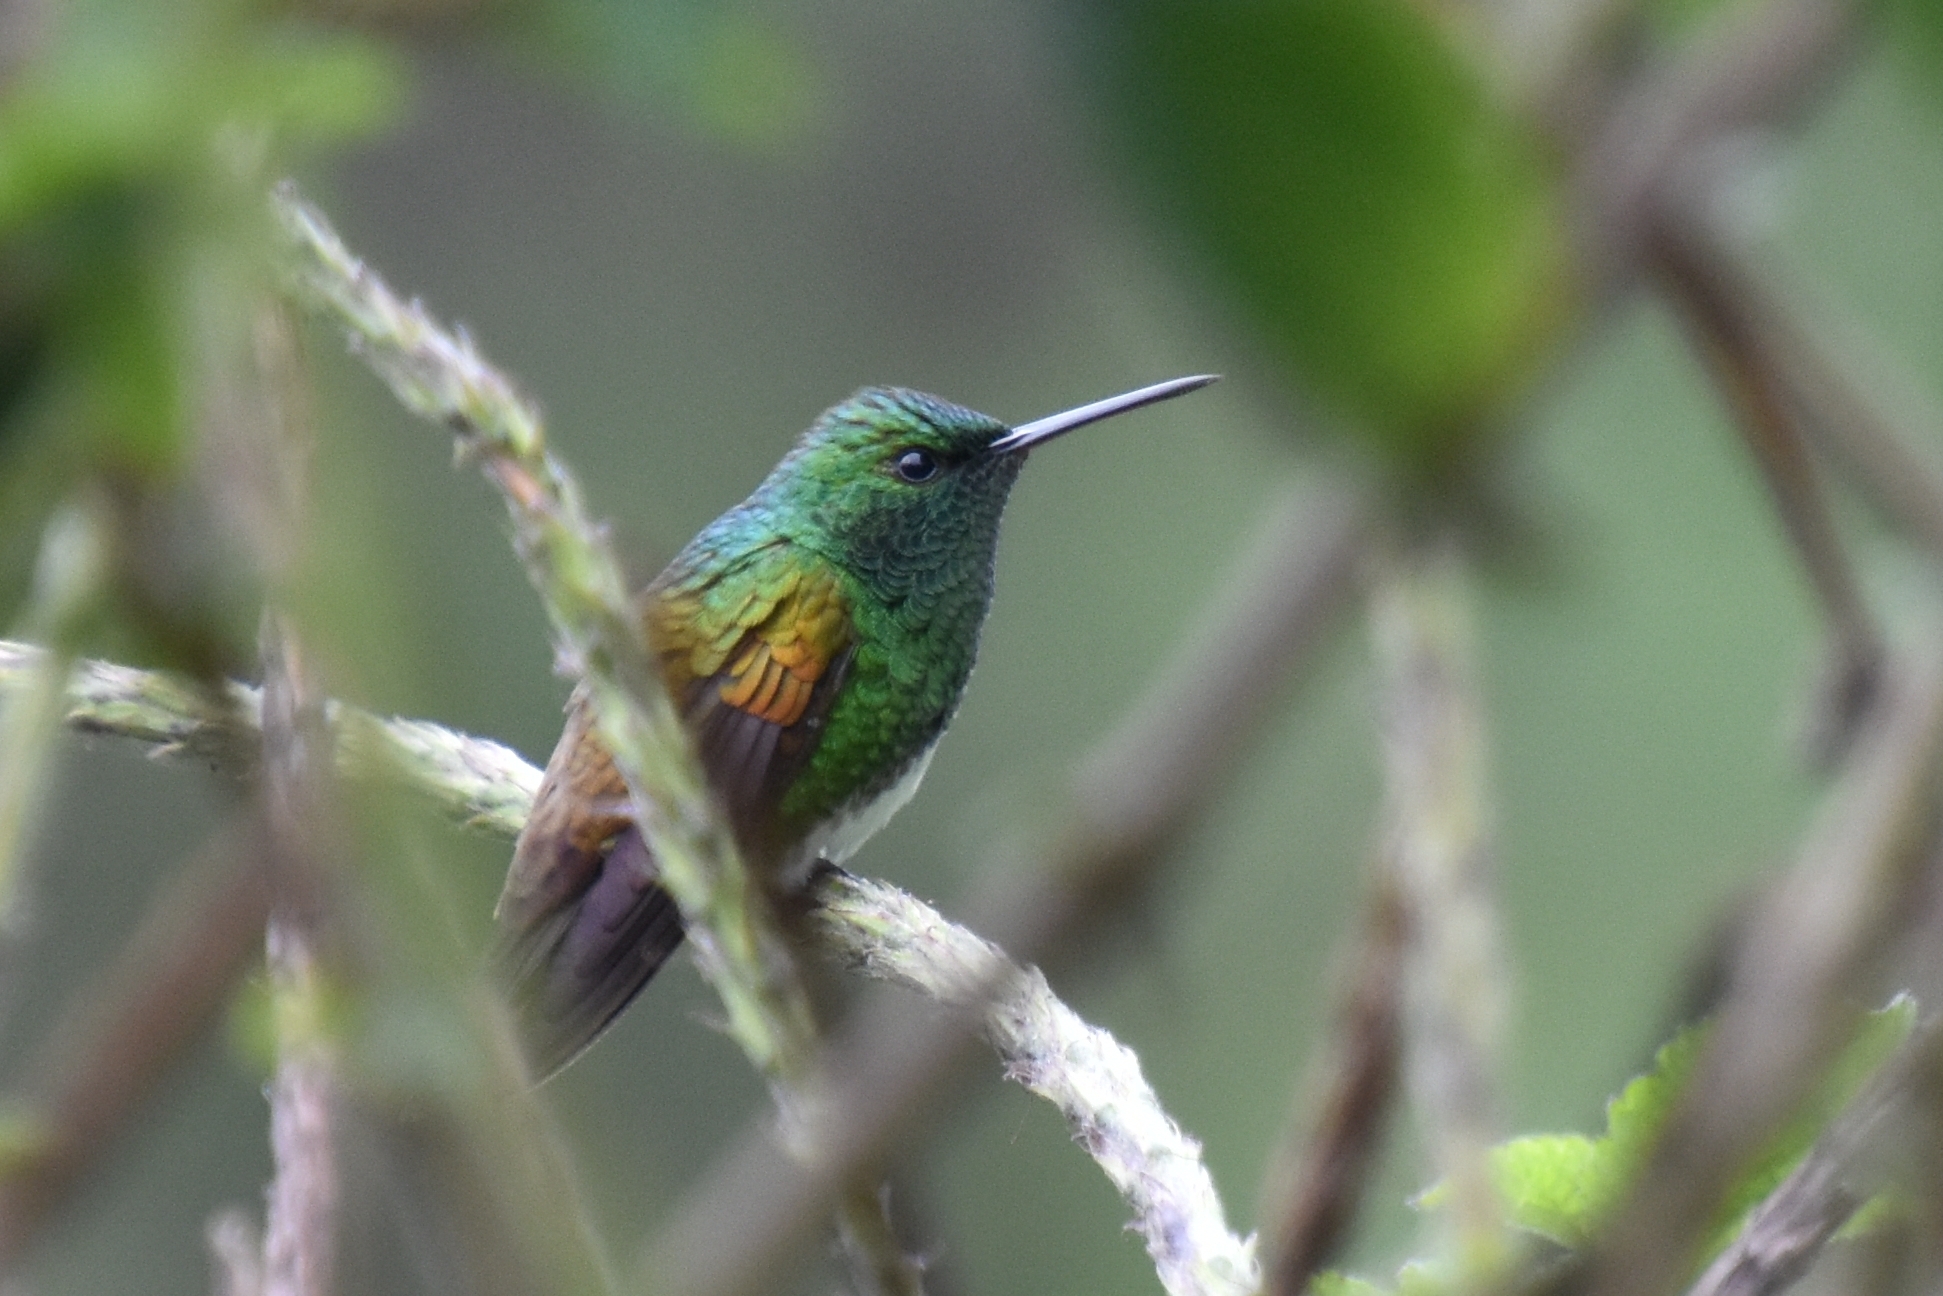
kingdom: Animalia
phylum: Chordata
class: Aves
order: Apodiformes
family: Trochilidae
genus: Saucerottia
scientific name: Saucerottia edward
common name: Snowy-bellied hummingbird
